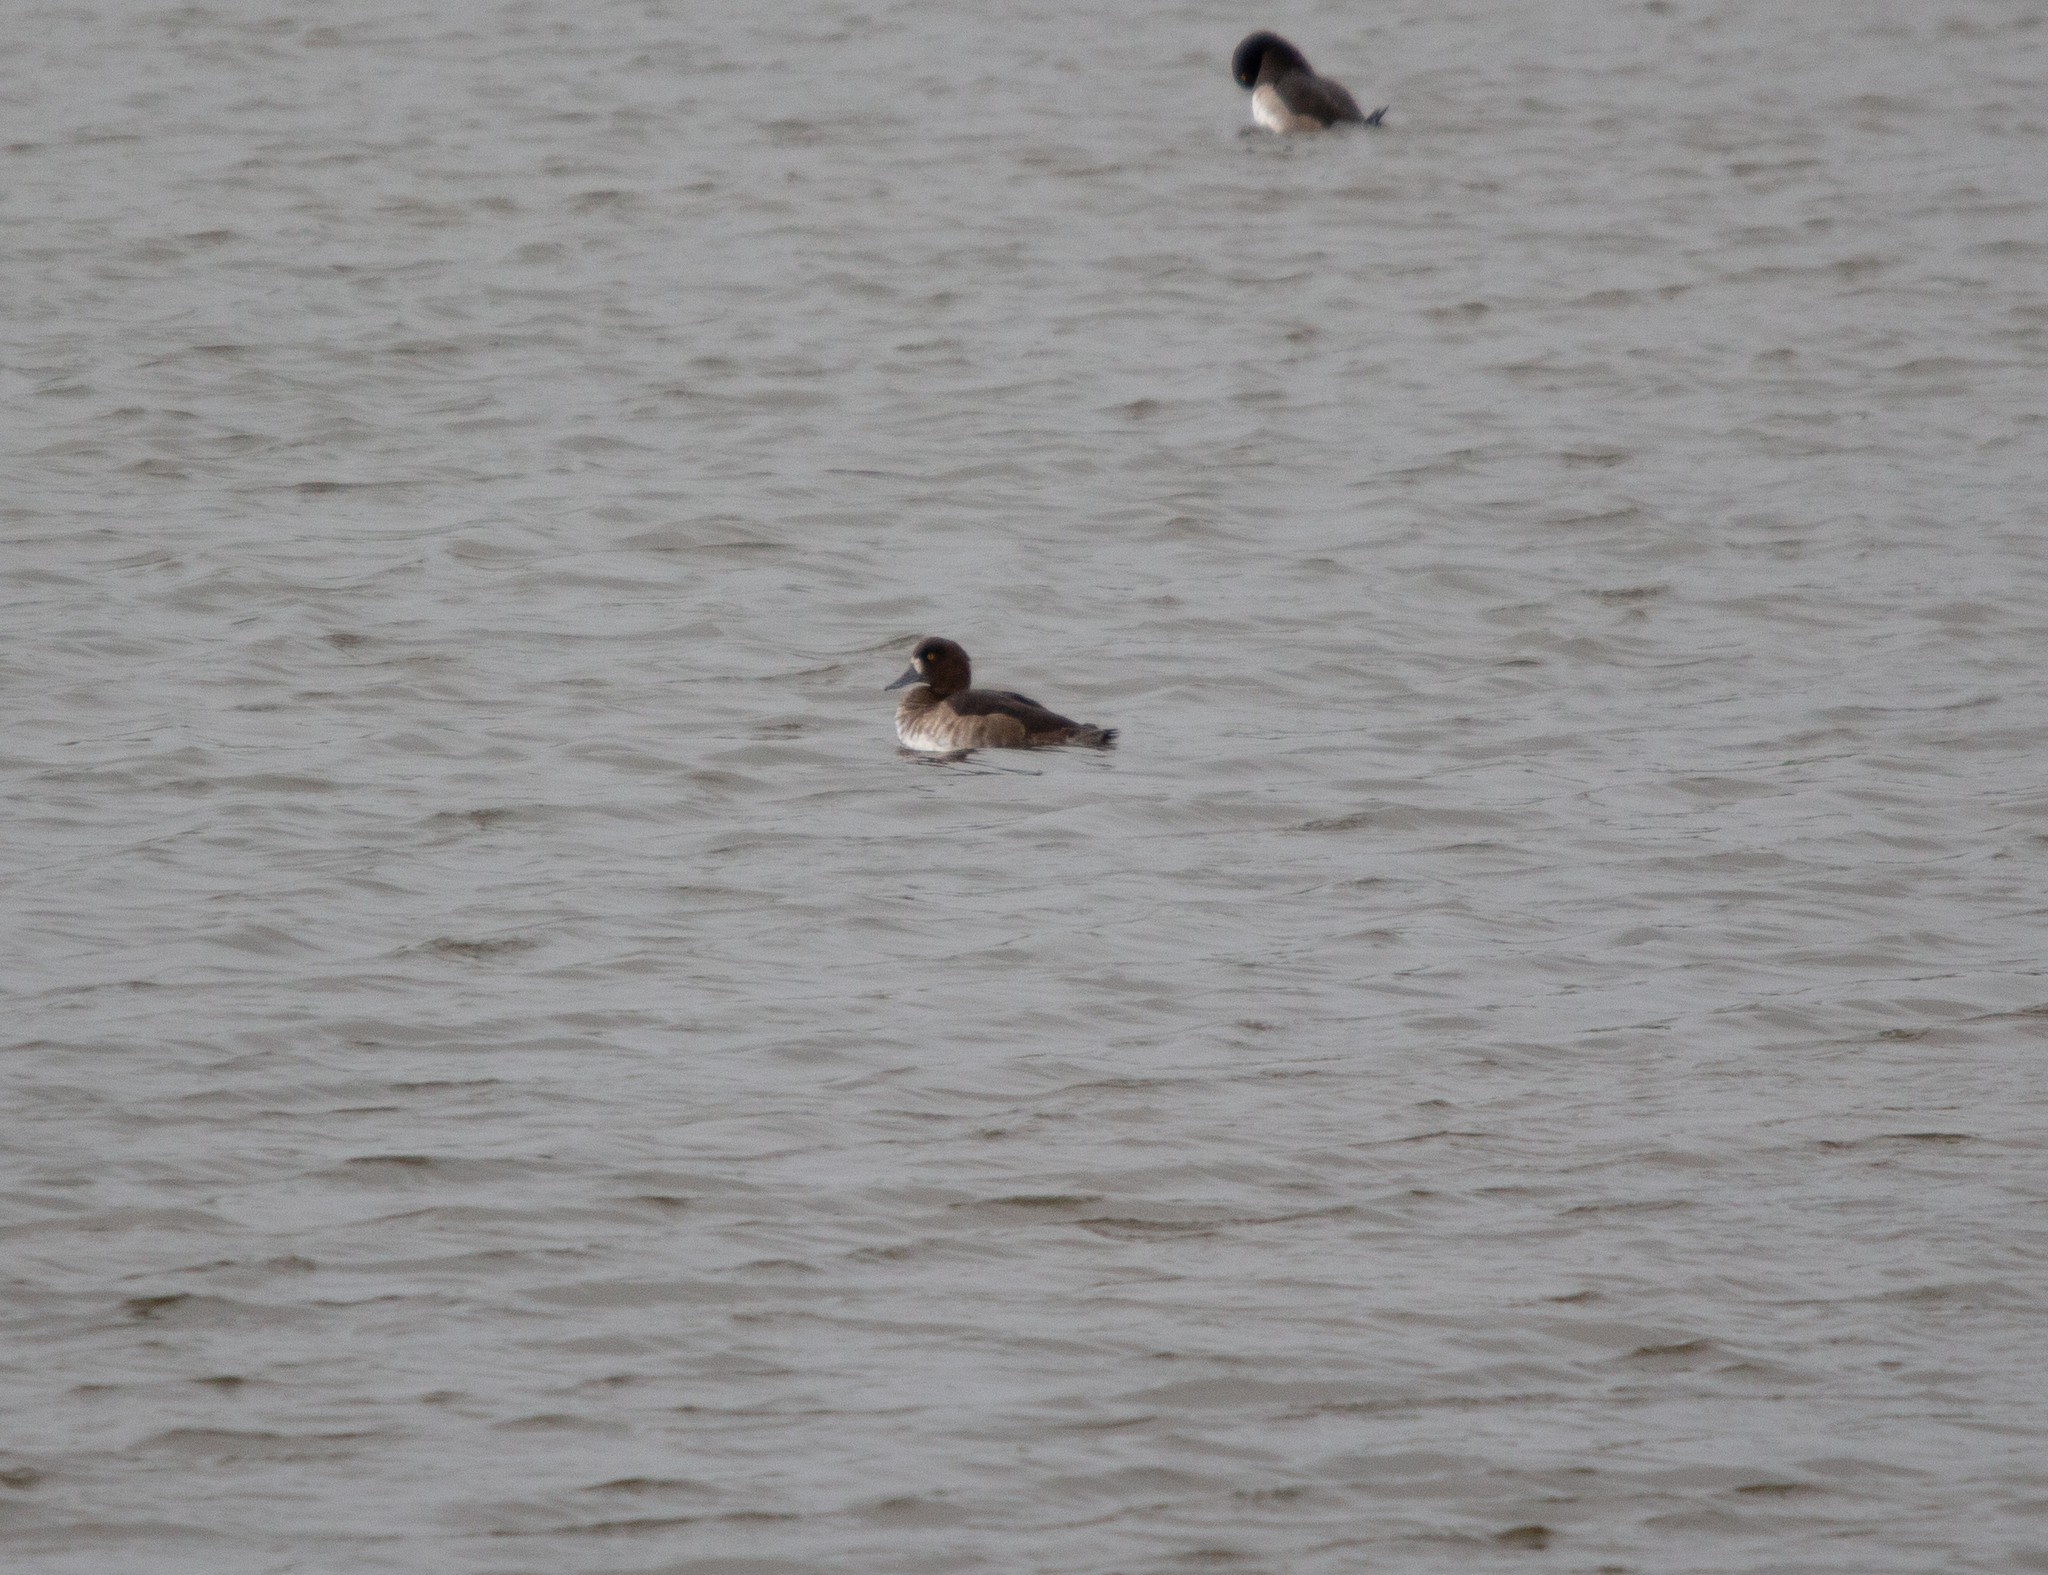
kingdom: Animalia
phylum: Chordata
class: Aves
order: Anseriformes
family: Anatidae
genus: Aythya
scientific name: Aythya marila
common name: Greater scaup
